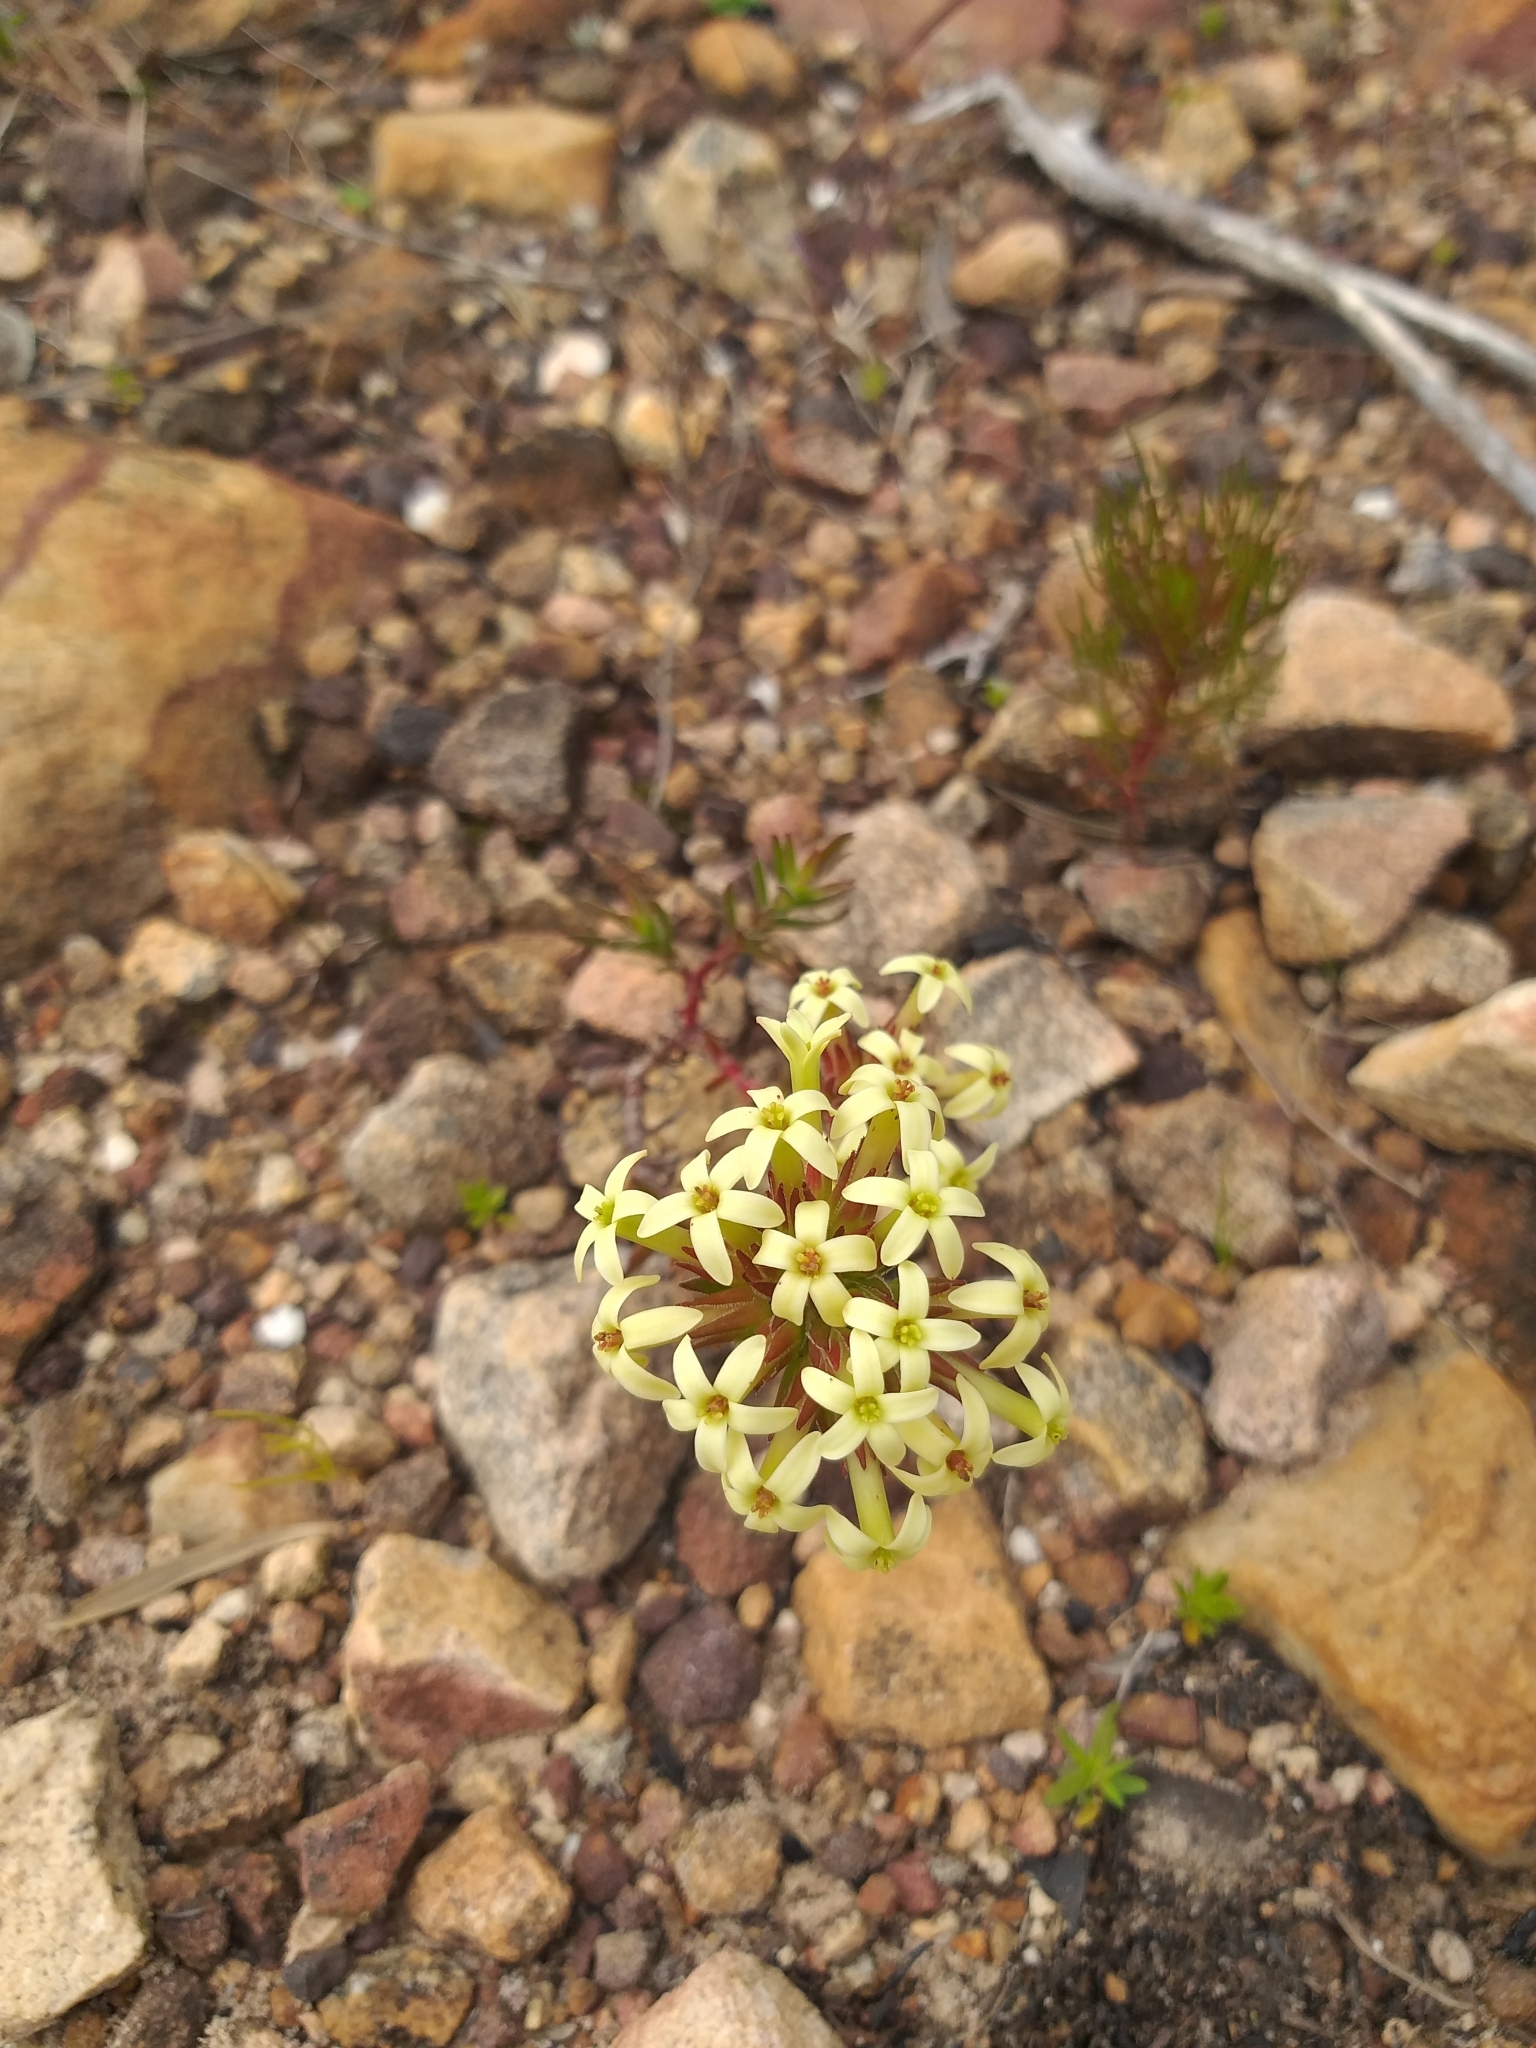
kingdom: Plantae
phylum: Tracheophyta
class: Magnoliopsida
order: Saxifragales
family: Crassulaceae
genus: Crassula
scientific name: Crassula fascicularis
